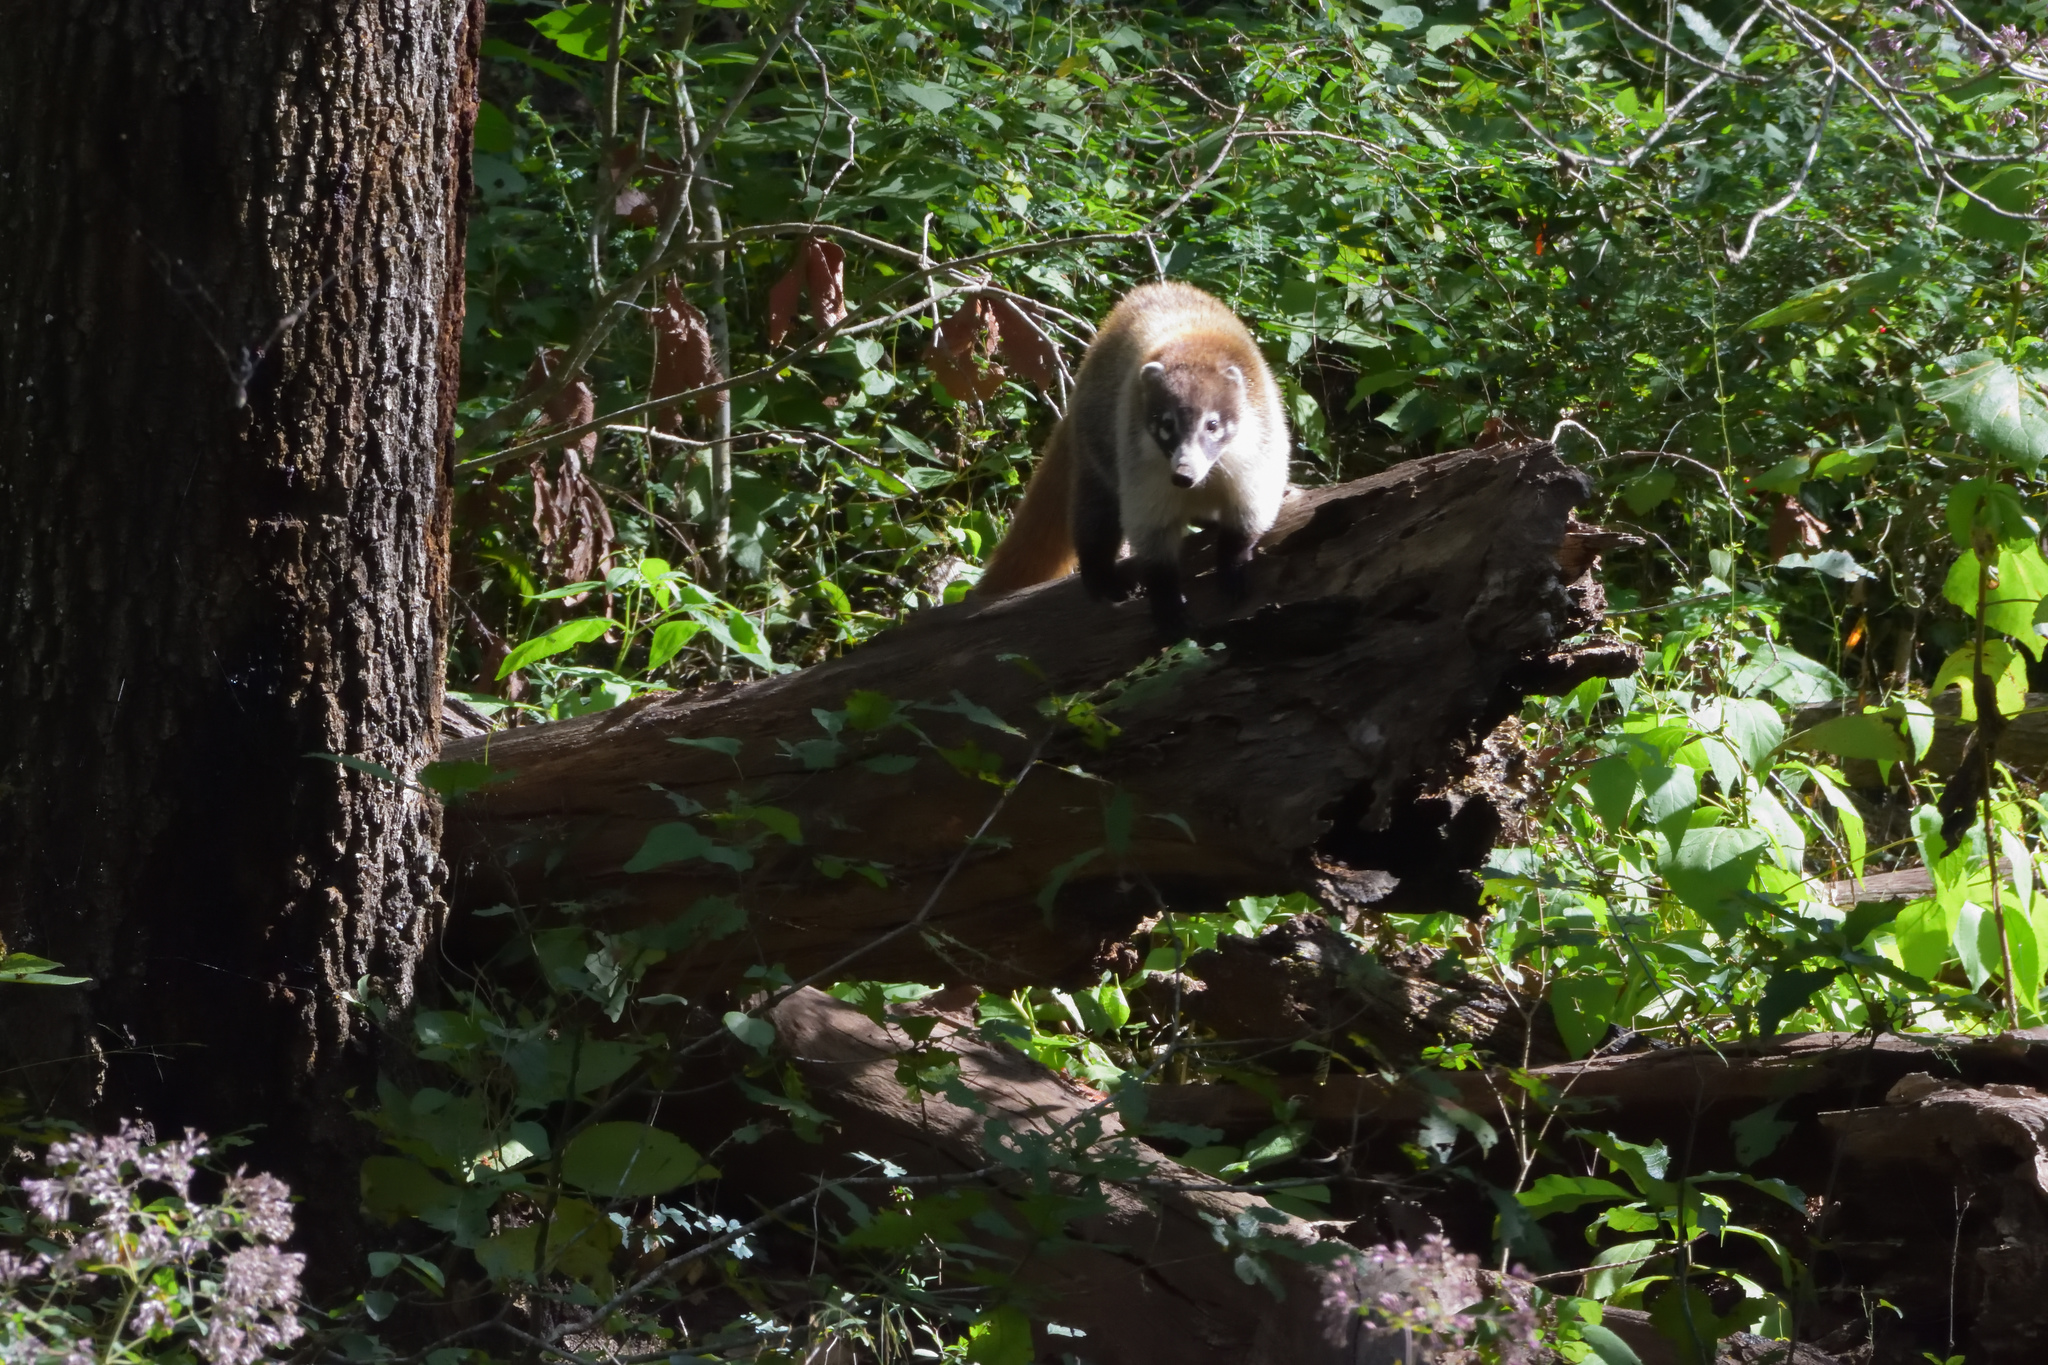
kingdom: Animalia
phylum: Chordata
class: Mammalia
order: Carnivora
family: Procyonidae
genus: Nasua
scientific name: Nasua narica
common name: White-nosed coati
